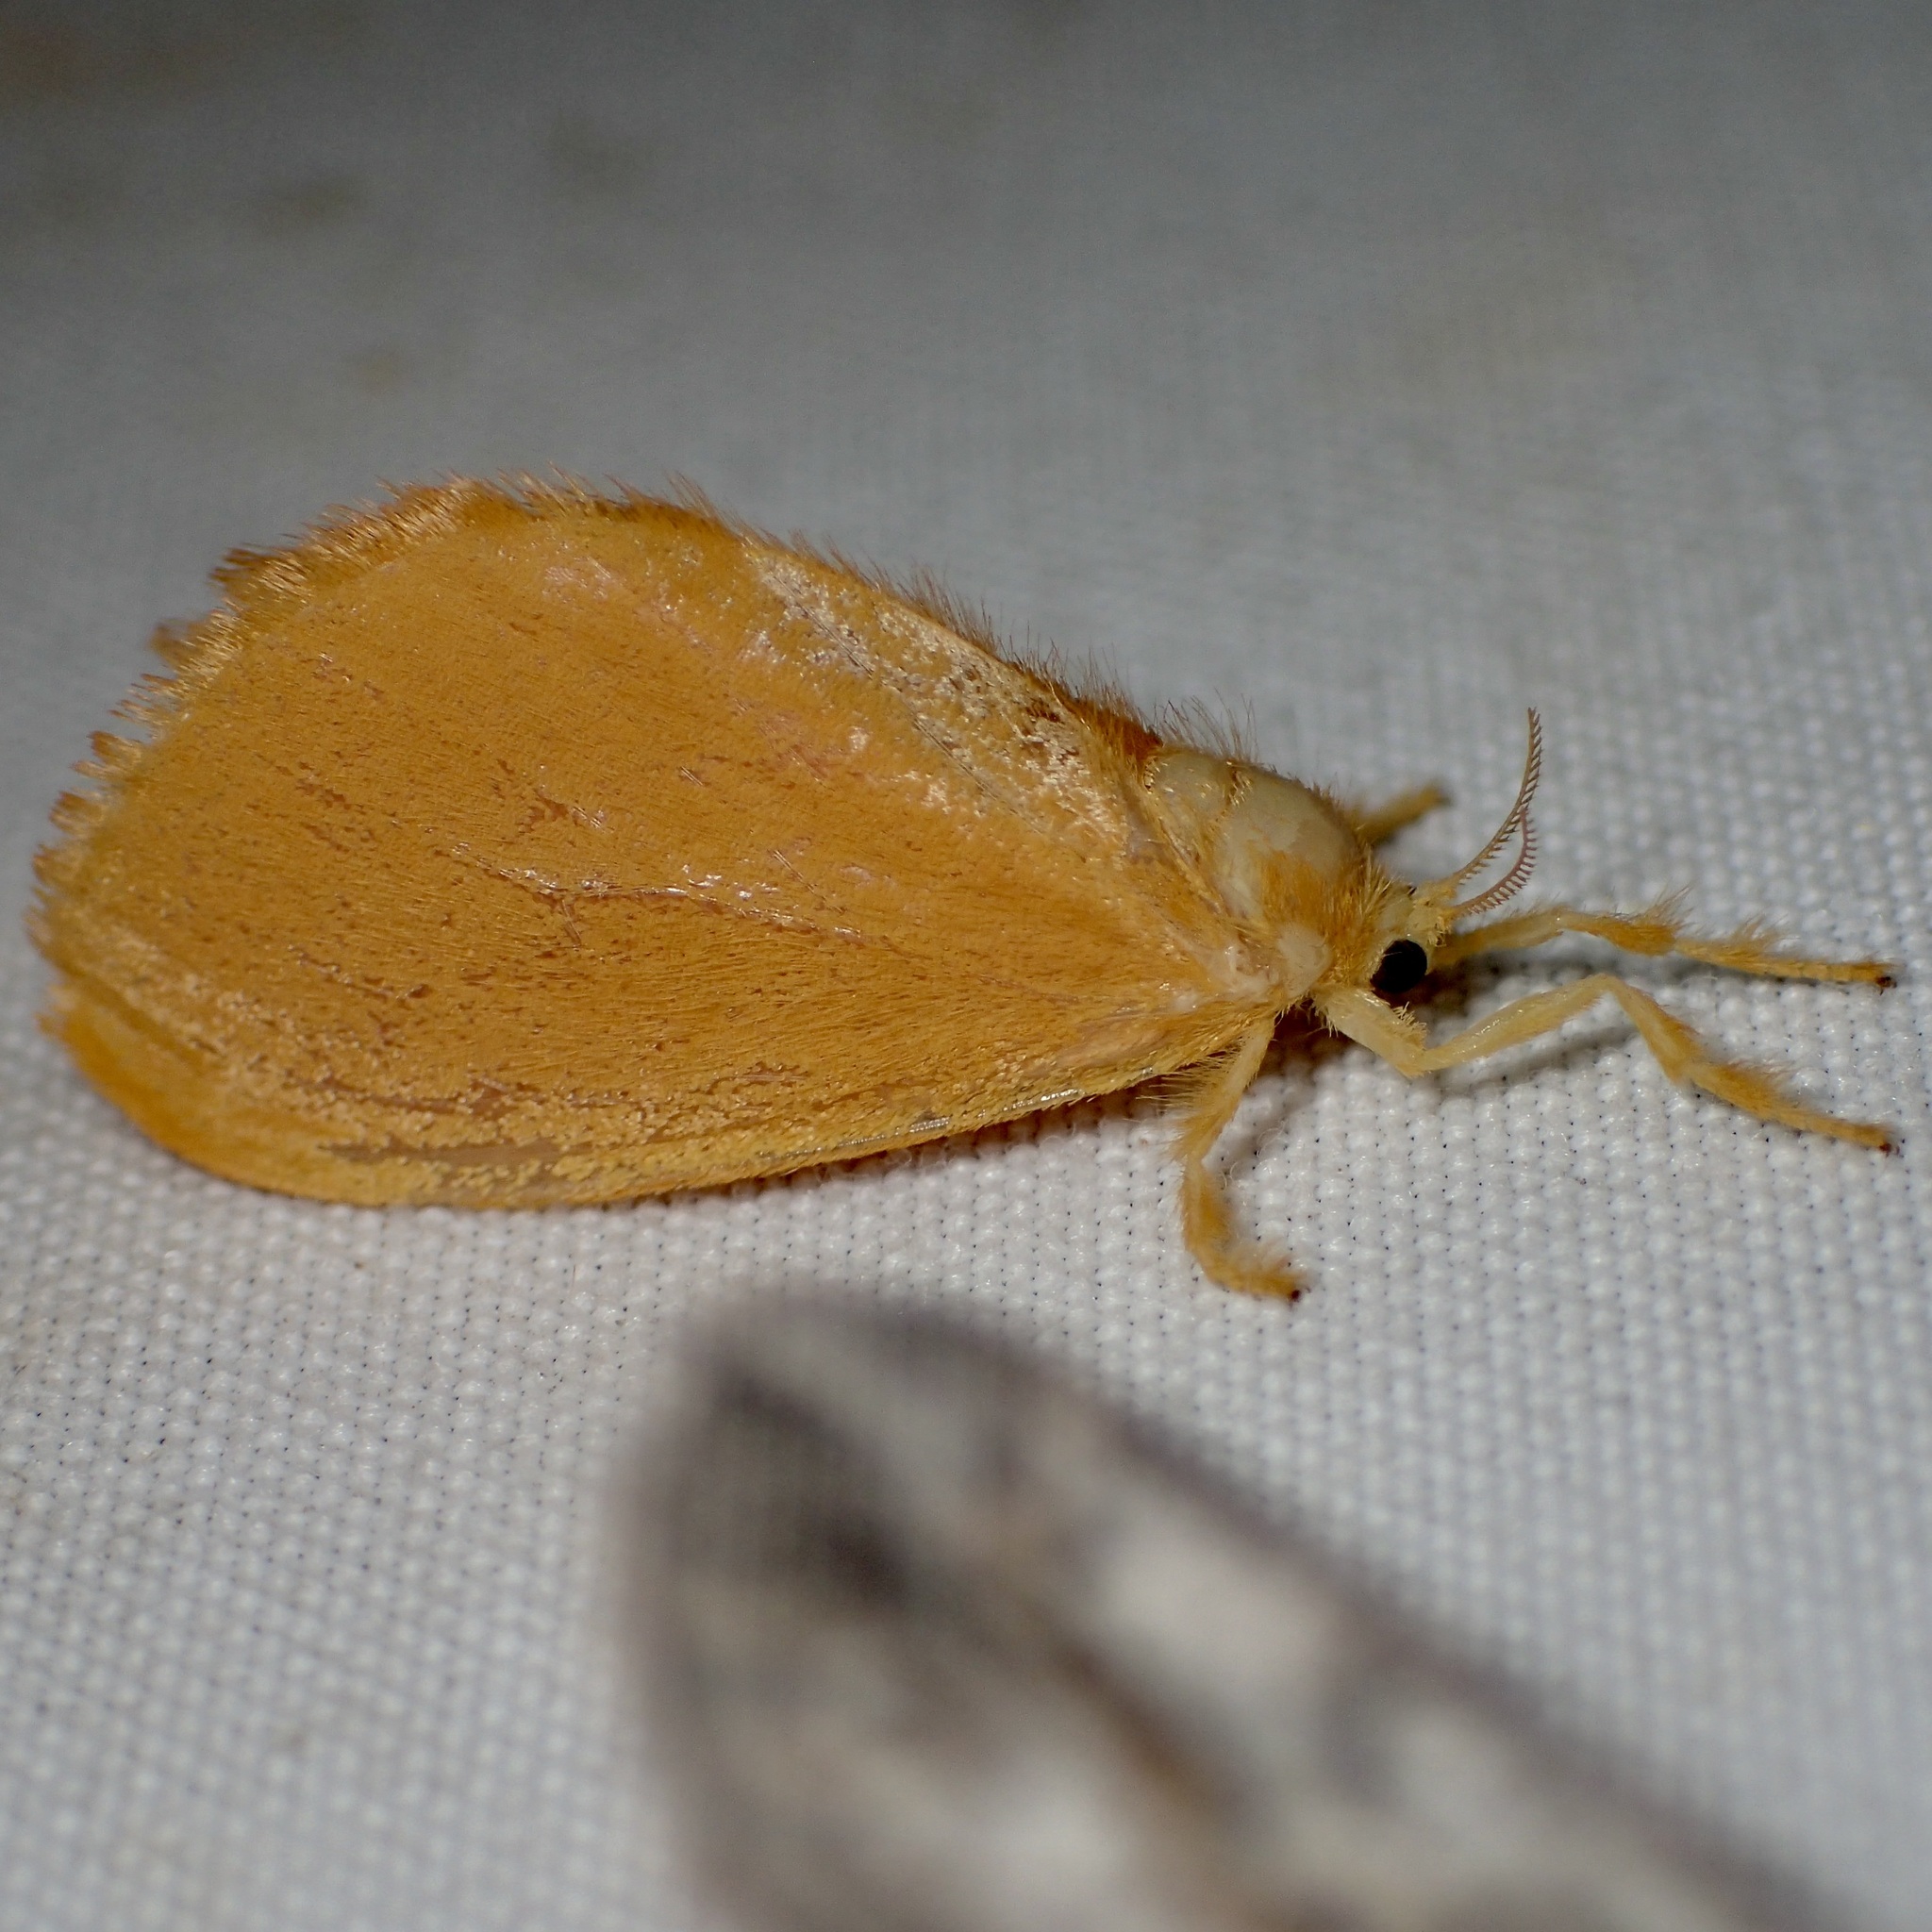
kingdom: Animalia
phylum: Arthropoda
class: Insecta
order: Lepidoptera
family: Dalceridae
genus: Dalcerides
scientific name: Dalcerides ingenita
